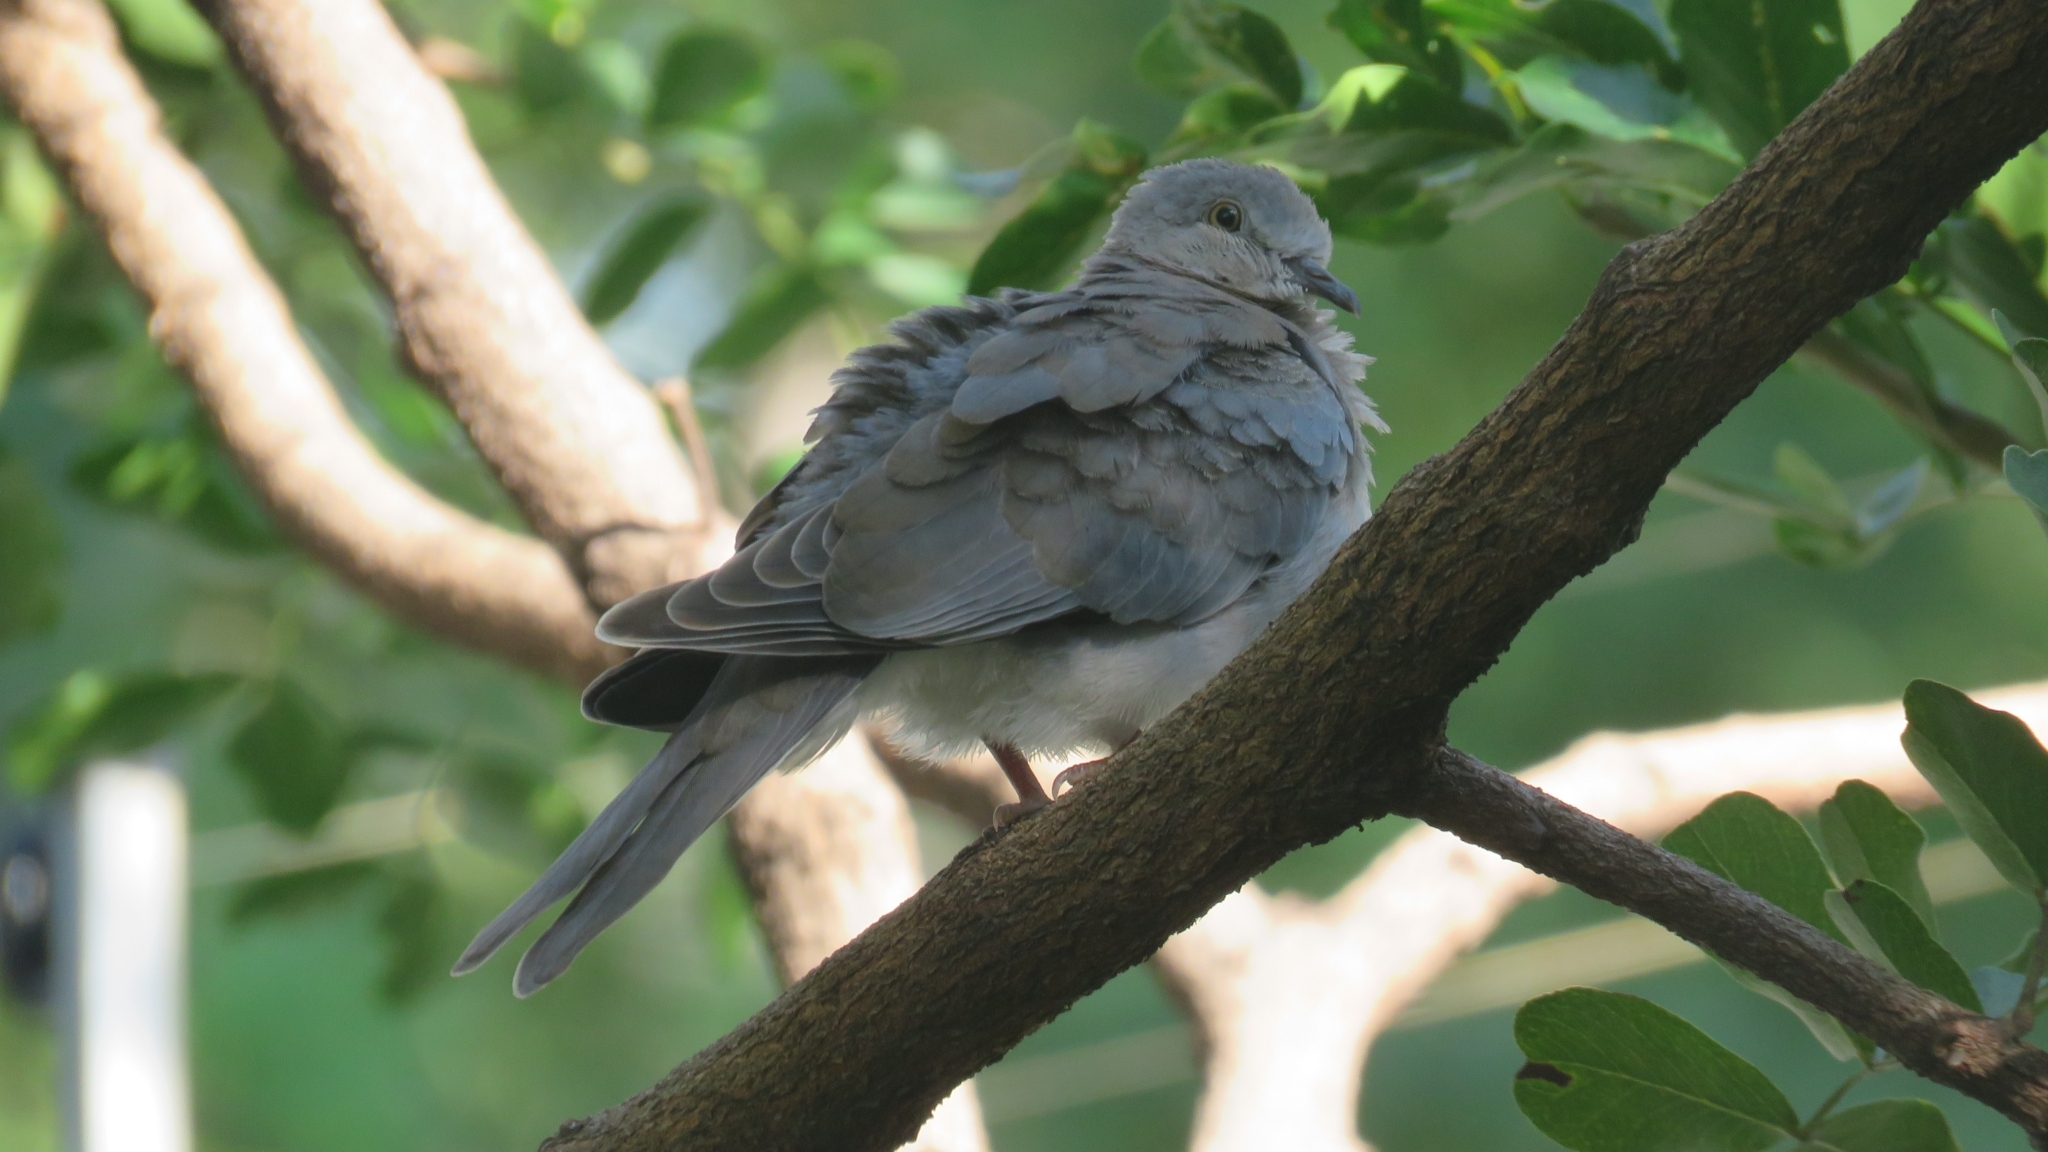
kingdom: Animalia
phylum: Chordata
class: Aves
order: Columbiformes
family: Columbidae
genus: Spilopelia
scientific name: Spilopelia senegalensis
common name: Laughing dove
